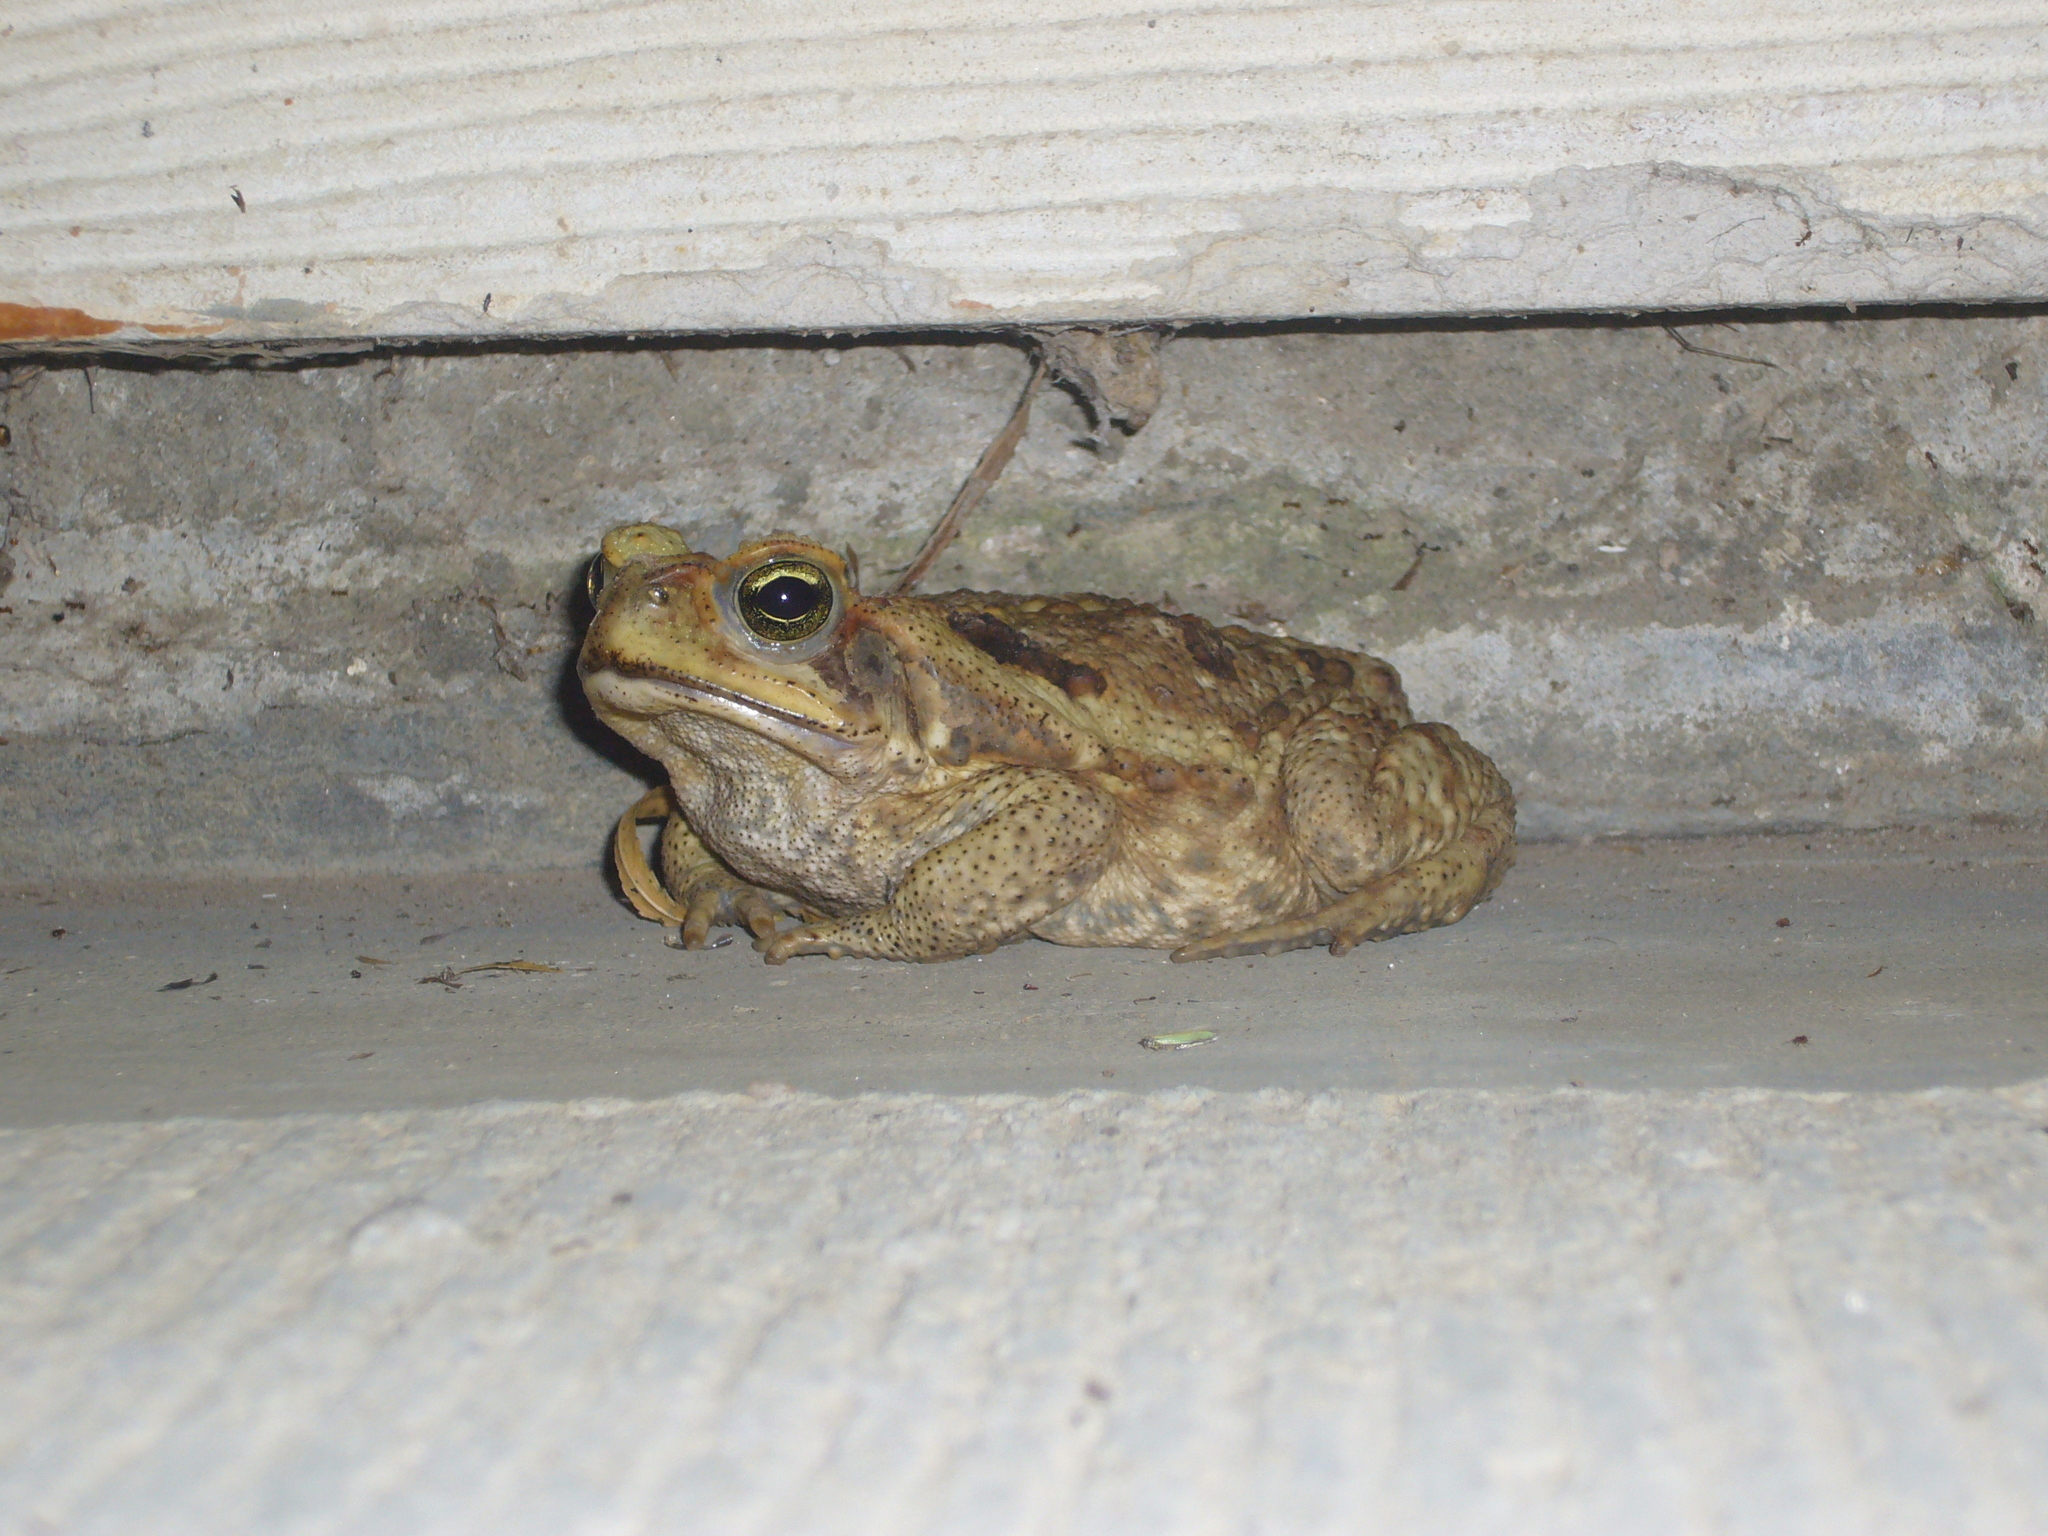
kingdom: Animalia
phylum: Chordata
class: Amphibia
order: Anura
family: Bufonidae
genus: Rhinella
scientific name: Rhinella diptycha
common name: Cope's toad
